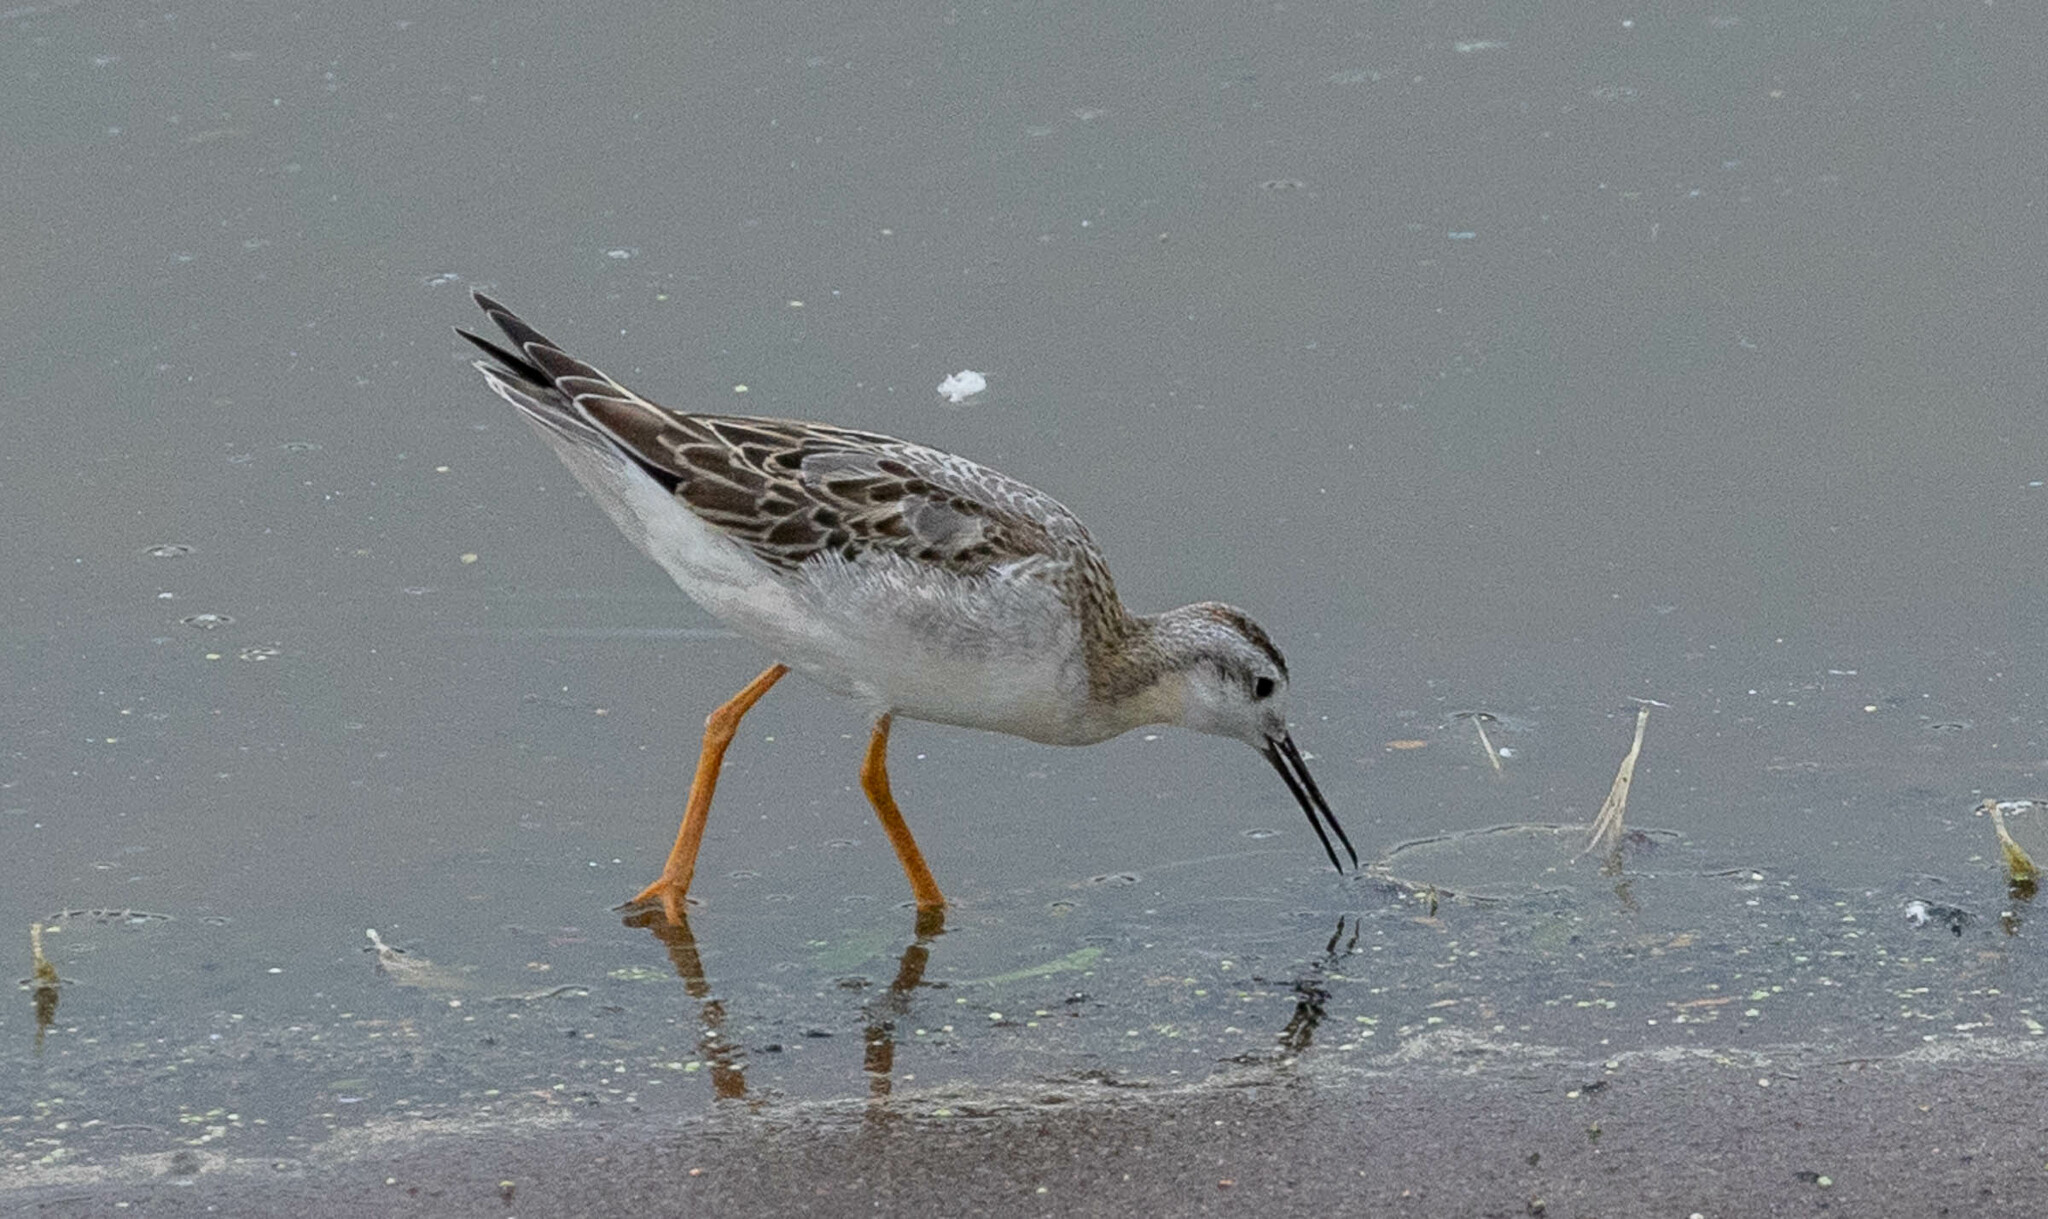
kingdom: Animalia
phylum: Chordata
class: Aves
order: Charadriiformes
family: Scolopacidae
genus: Phalaropus
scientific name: Phalaropus tricolor
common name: Wilson's phalarope
